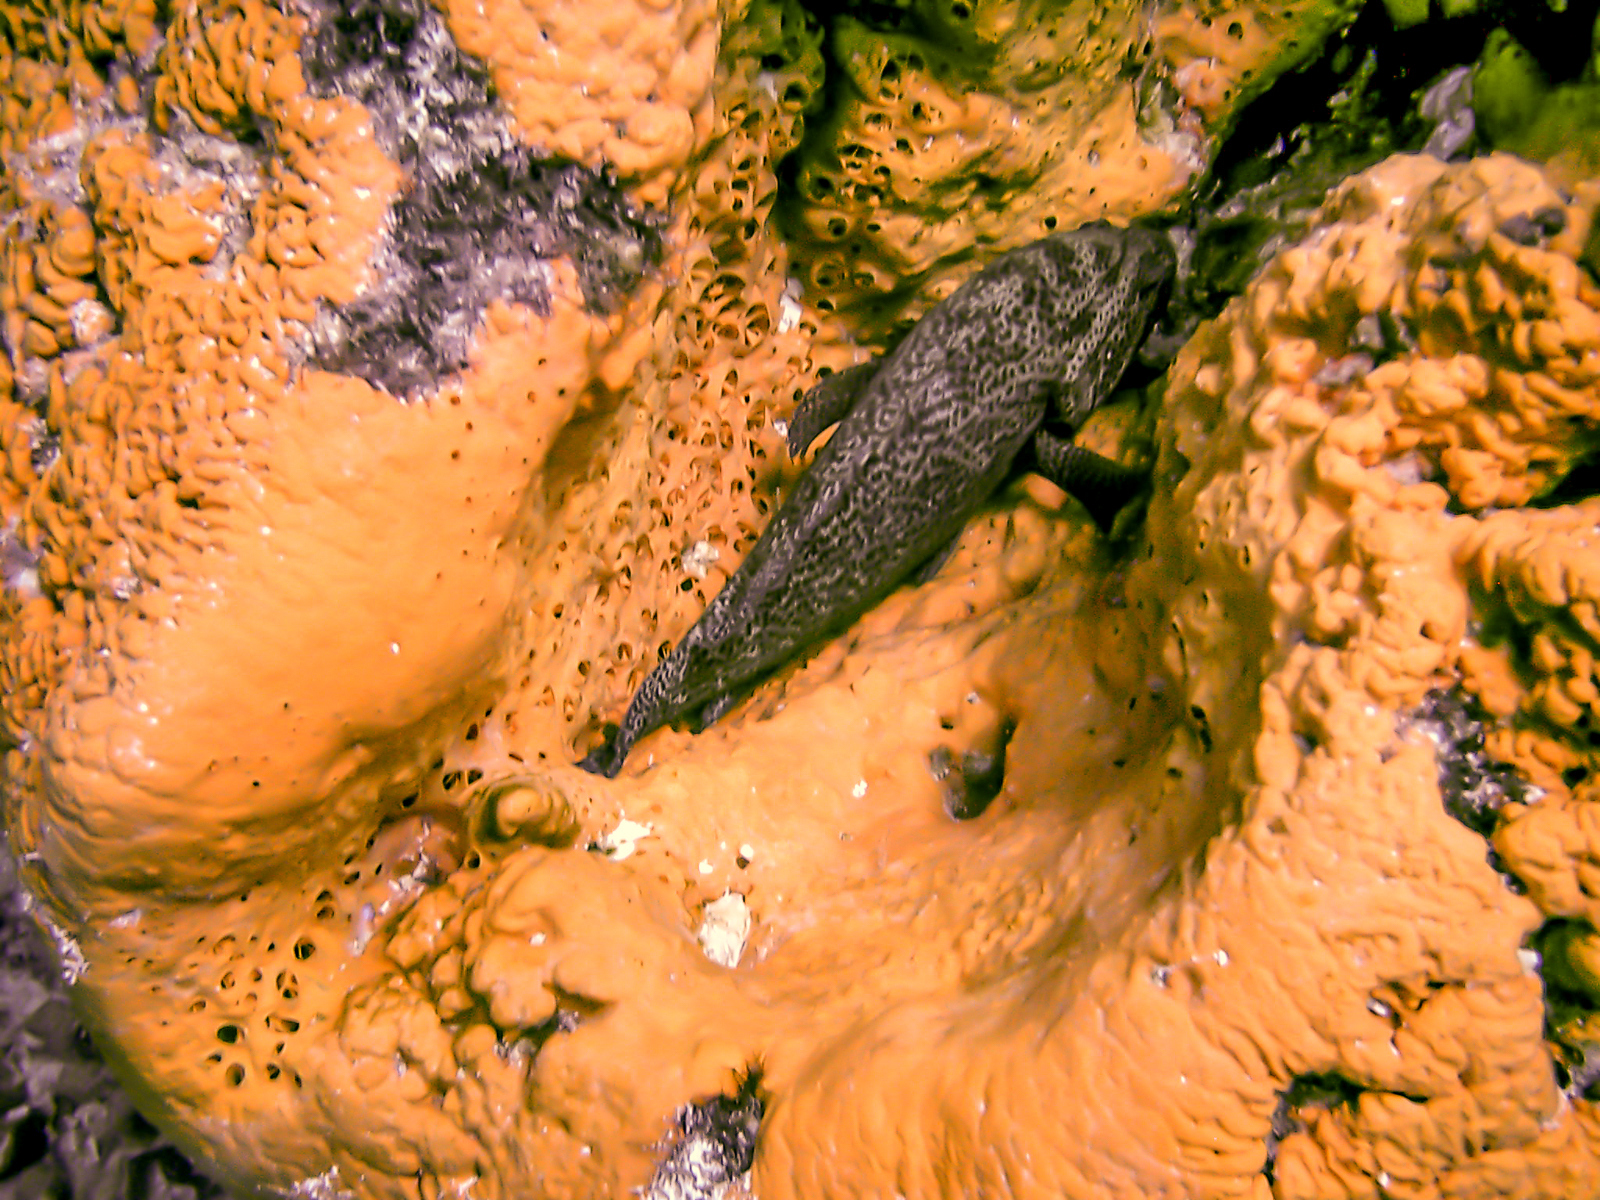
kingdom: Animalia
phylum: Porifera
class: Demospongiae
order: Agelasida
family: Agelasidae
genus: Agelas
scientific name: Agelas clathrodes
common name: Orange elephant ear sponge
